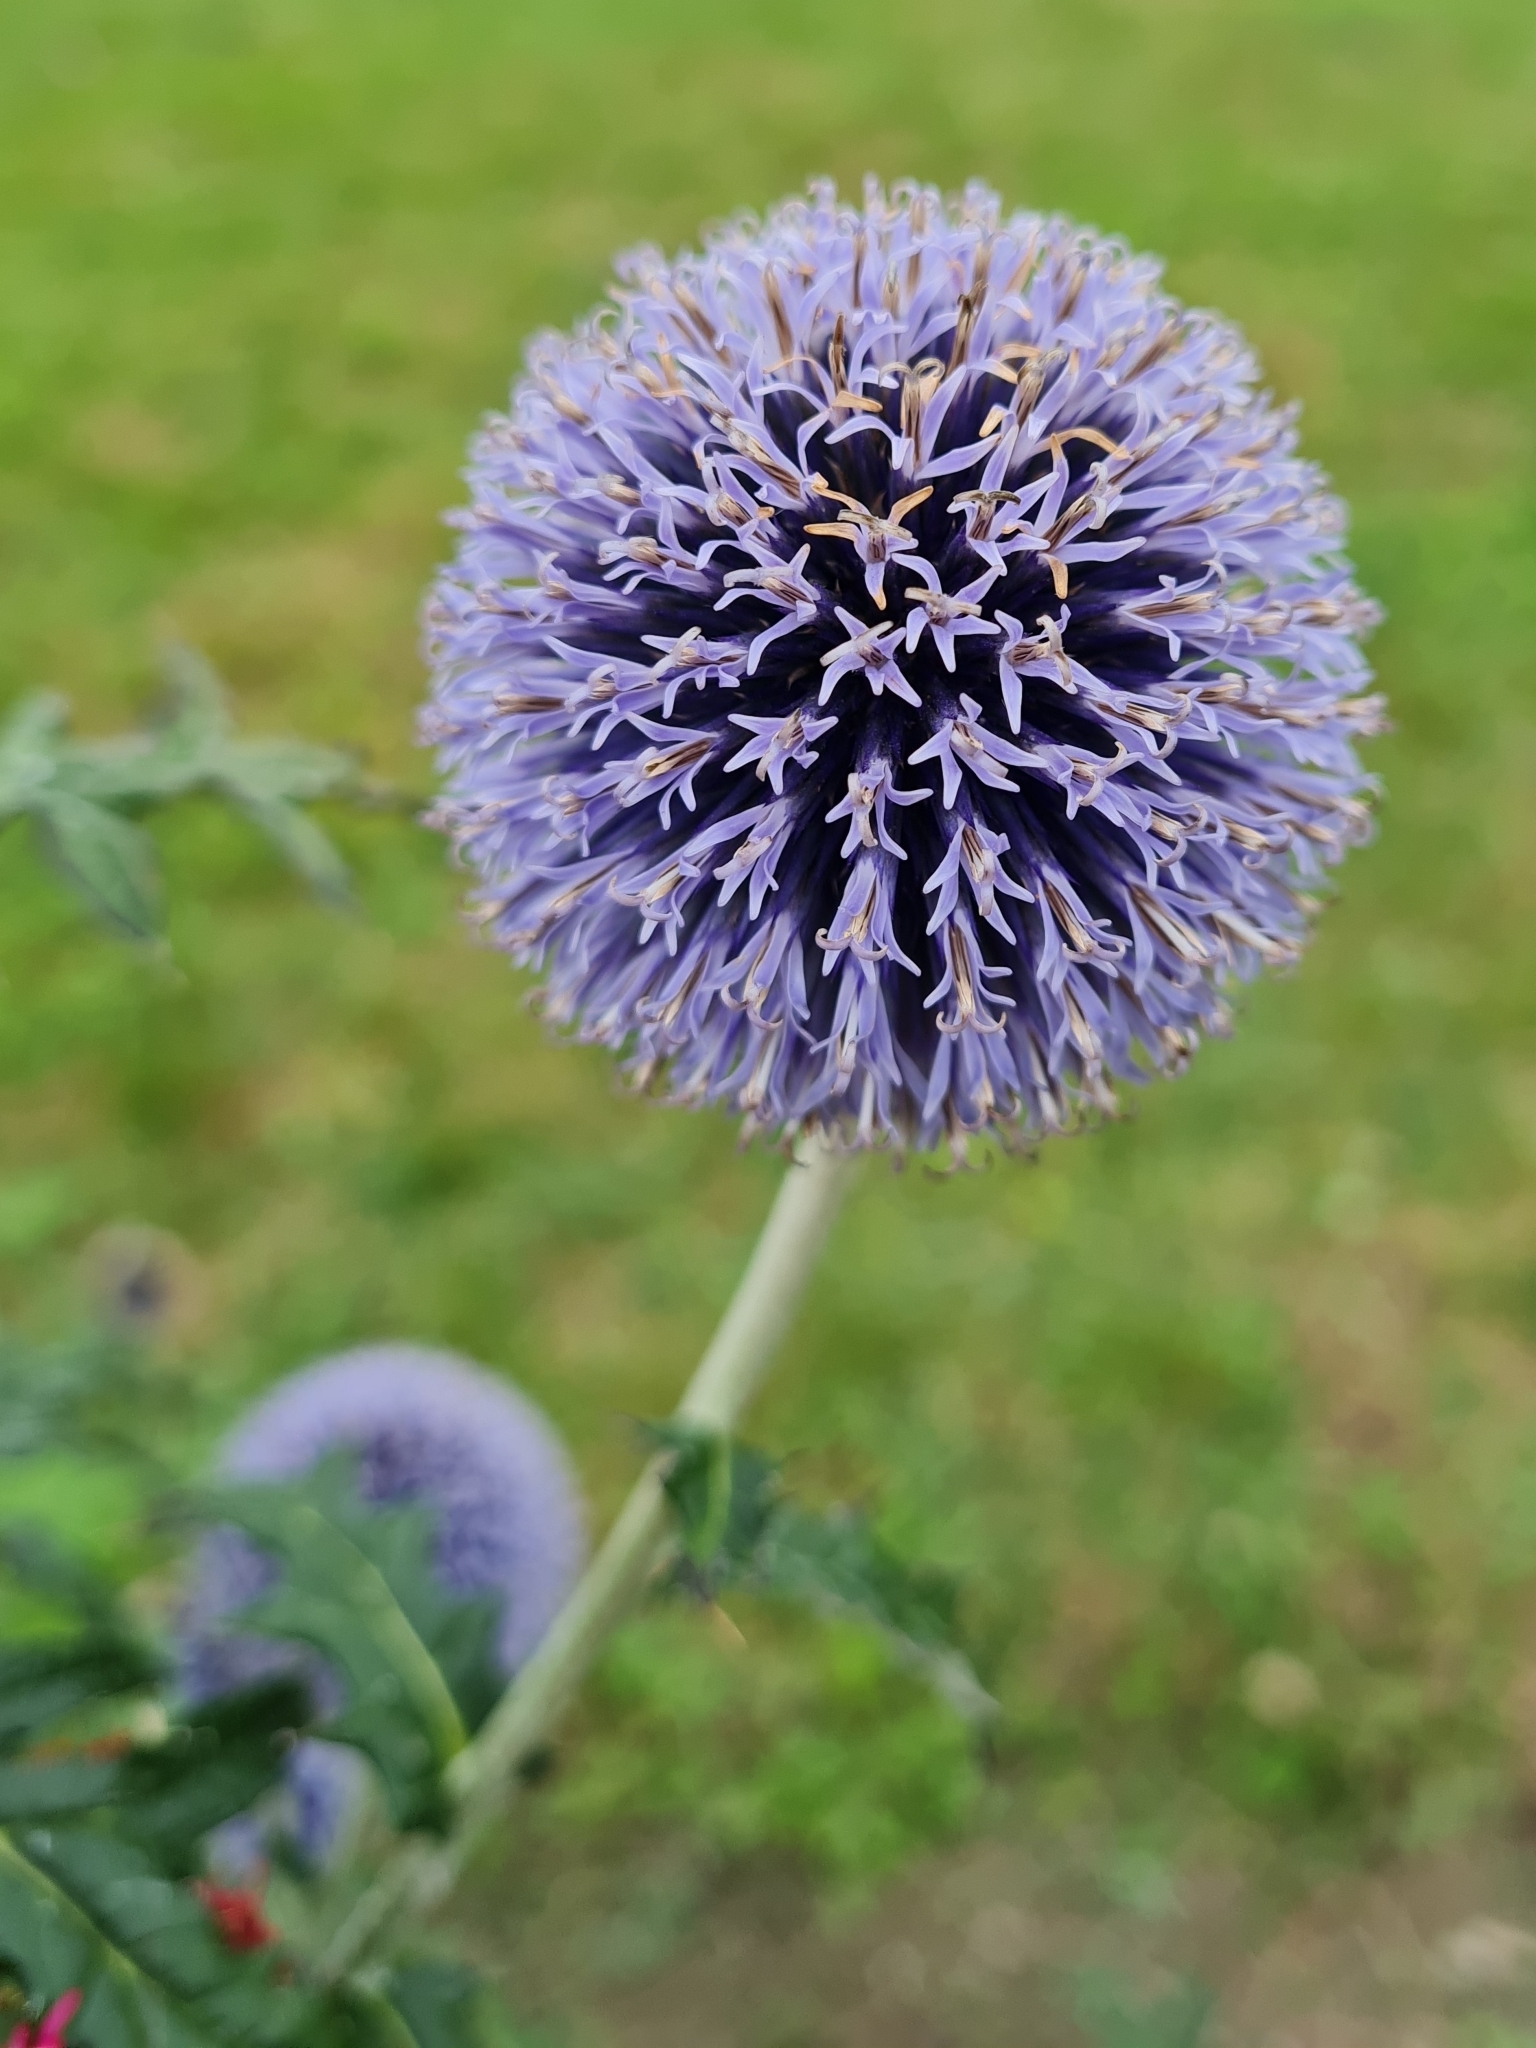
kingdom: Plantae
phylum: Tracheophyta
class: Magnoliopsida
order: Asterales
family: Asteraceae
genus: Echinops
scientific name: Echinops bannaticus
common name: Blue globe-thistle
